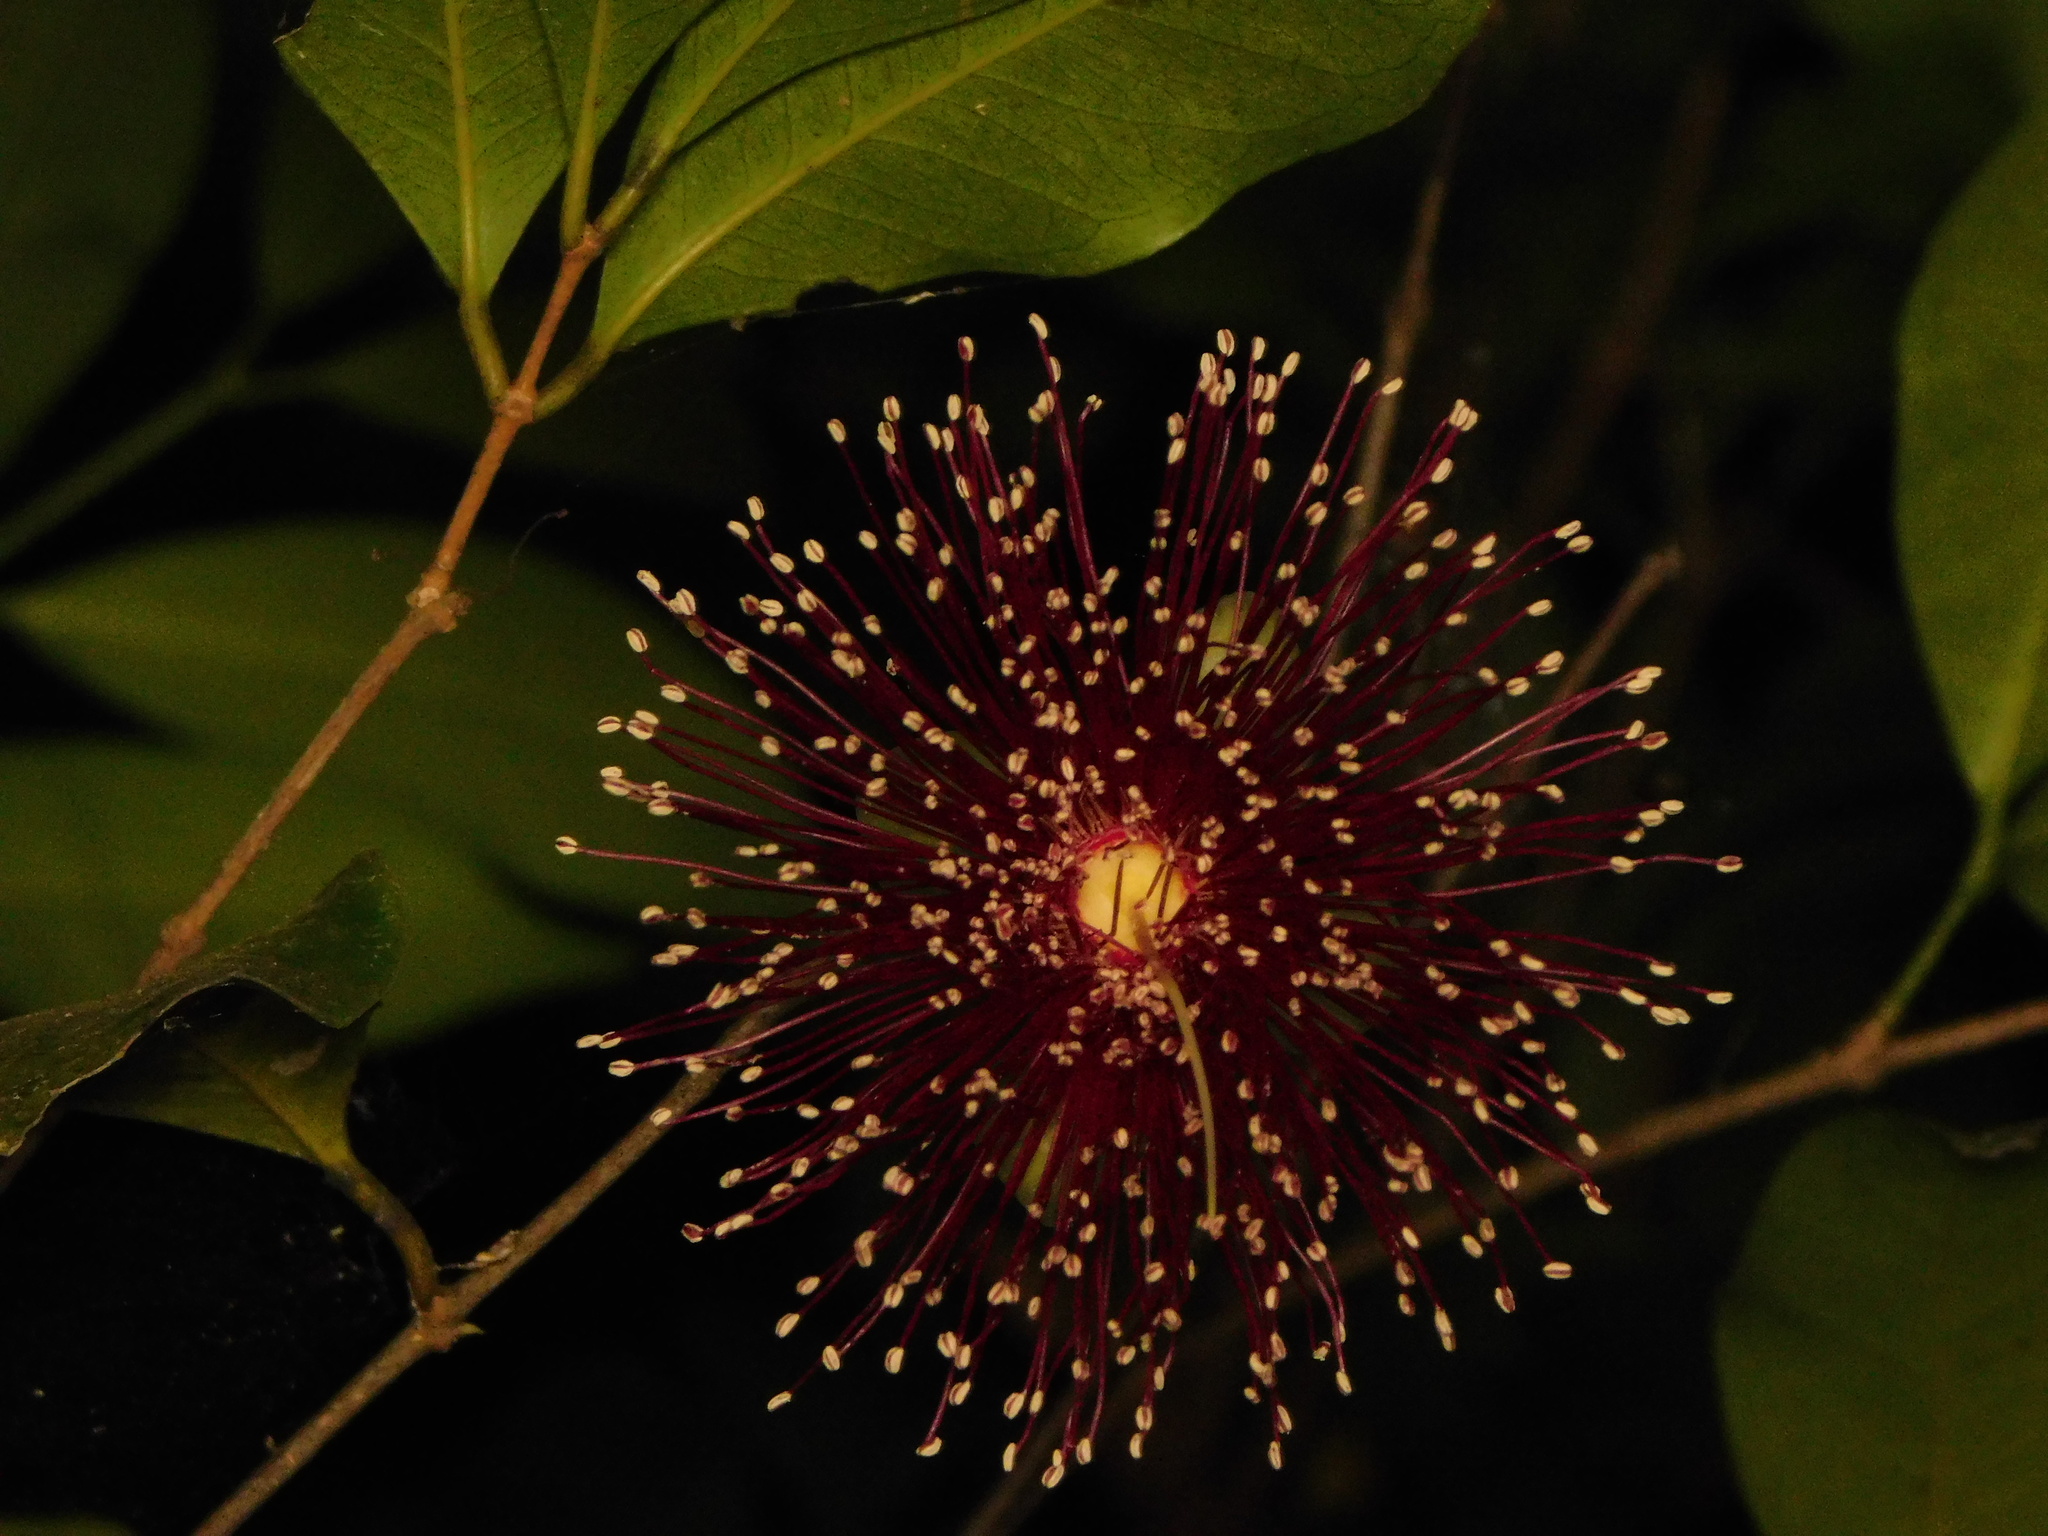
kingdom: Plantae
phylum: Tracheophyta
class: Magnoliopsida
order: Myrtales
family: Myrtaceae
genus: Syzygium
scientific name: Syzygium laetum
